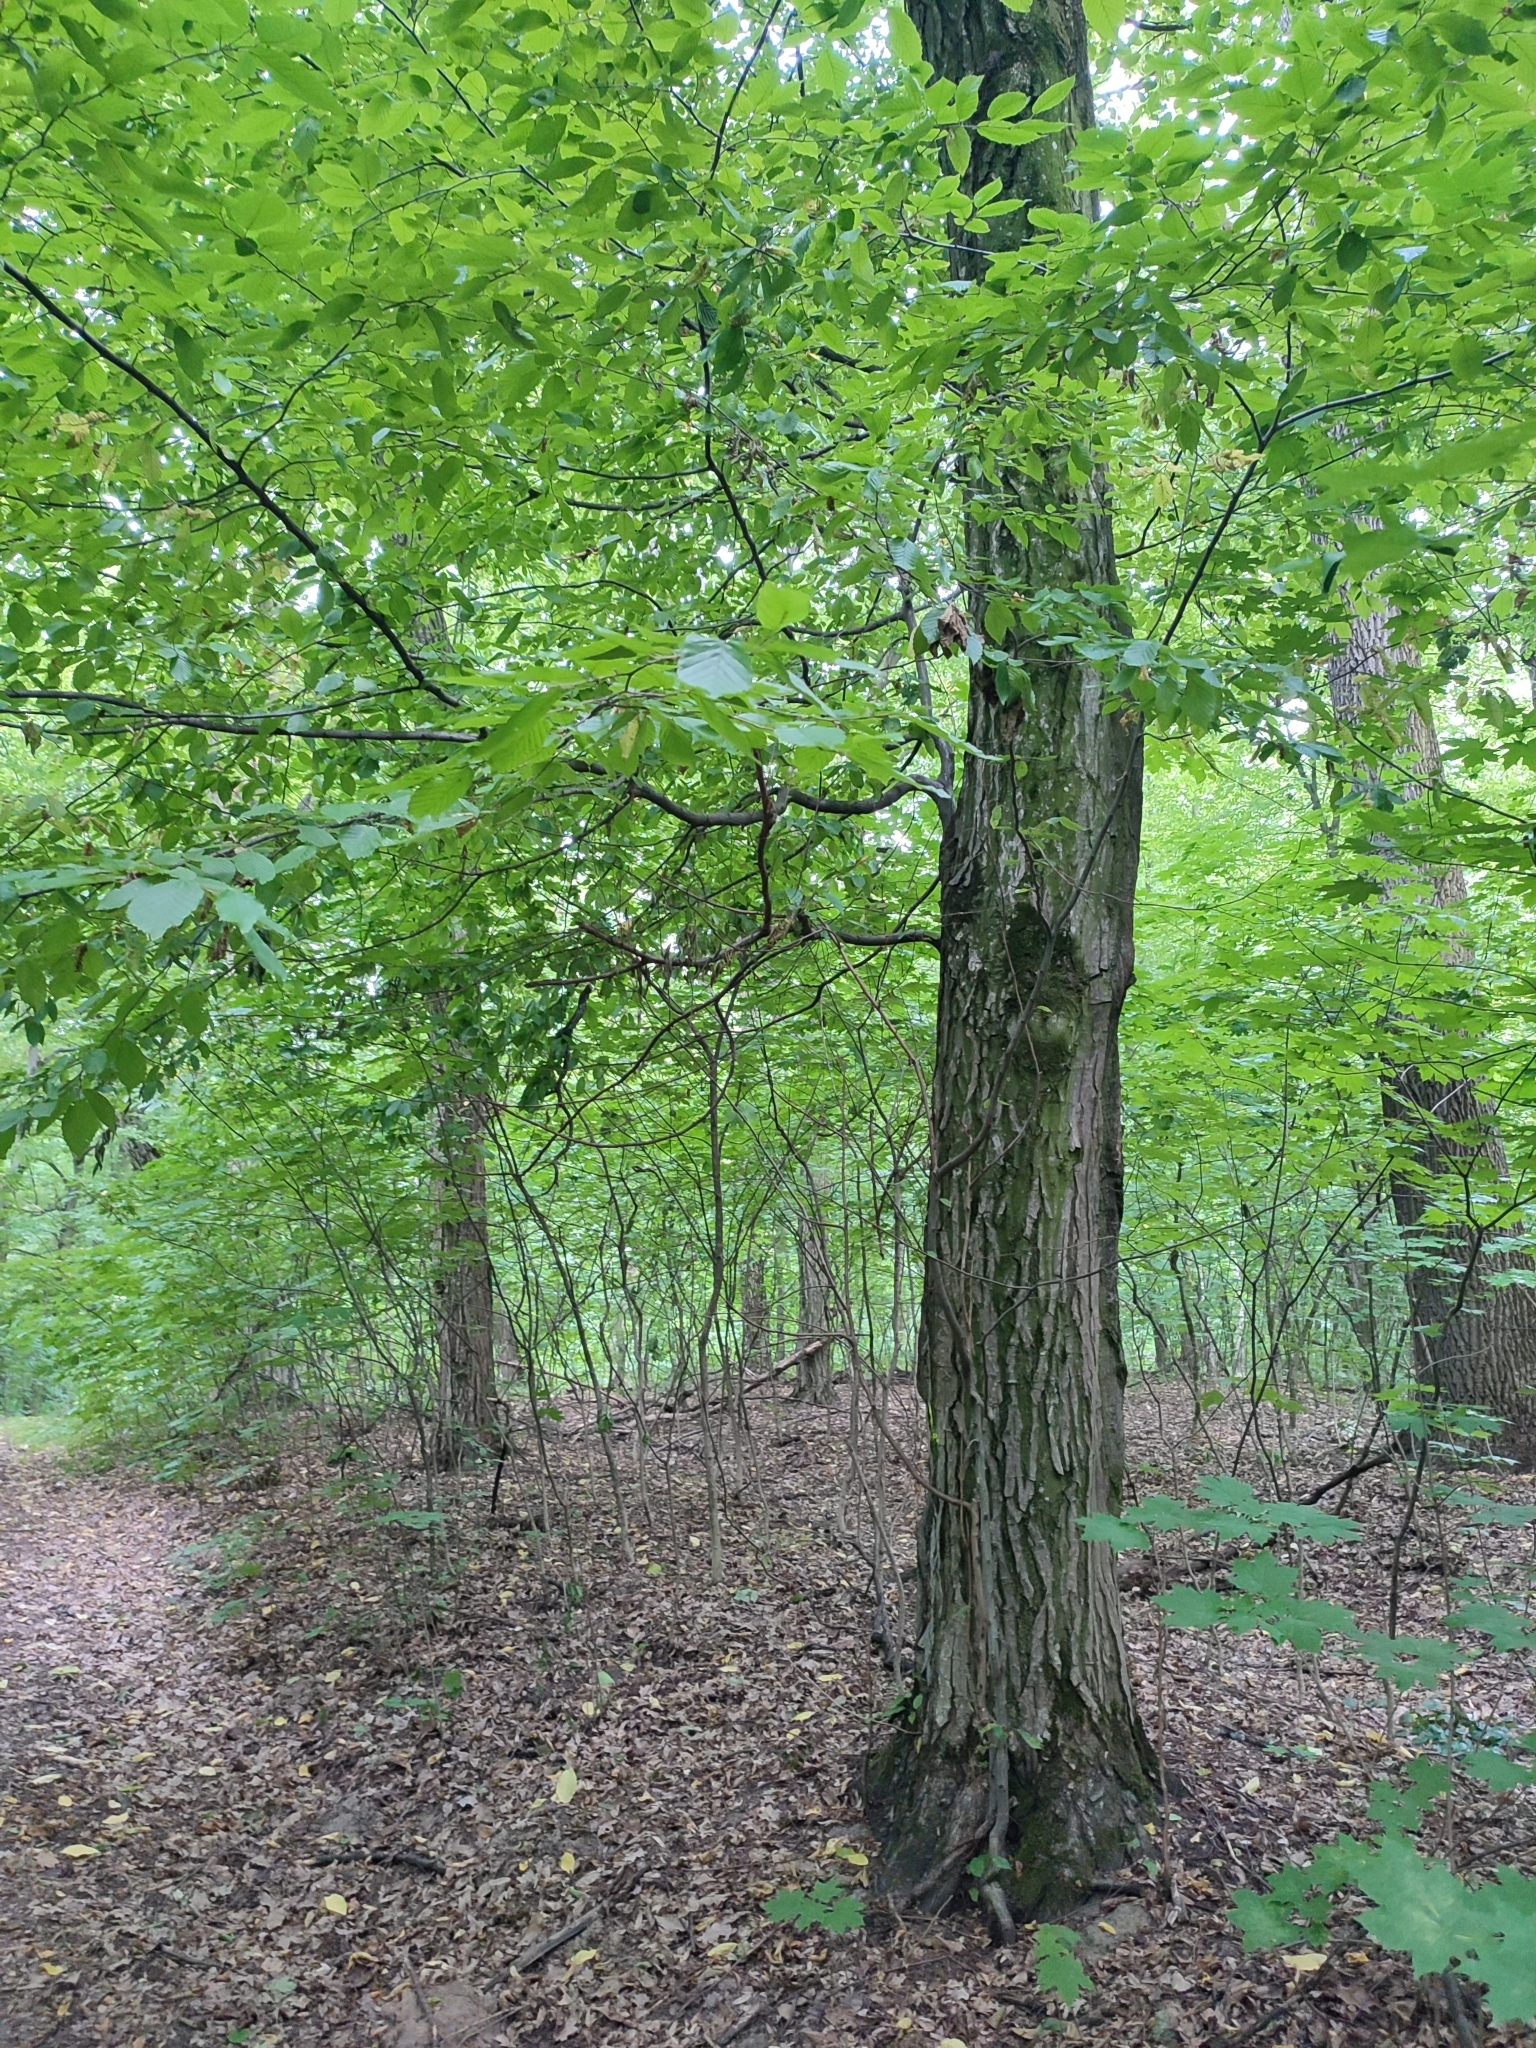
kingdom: Plantae
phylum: Tracheophyta
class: Magnoliopsida
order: Fagales
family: Betulaceae
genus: Carpinus
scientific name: Carpinus betulus
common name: Hornbeam
